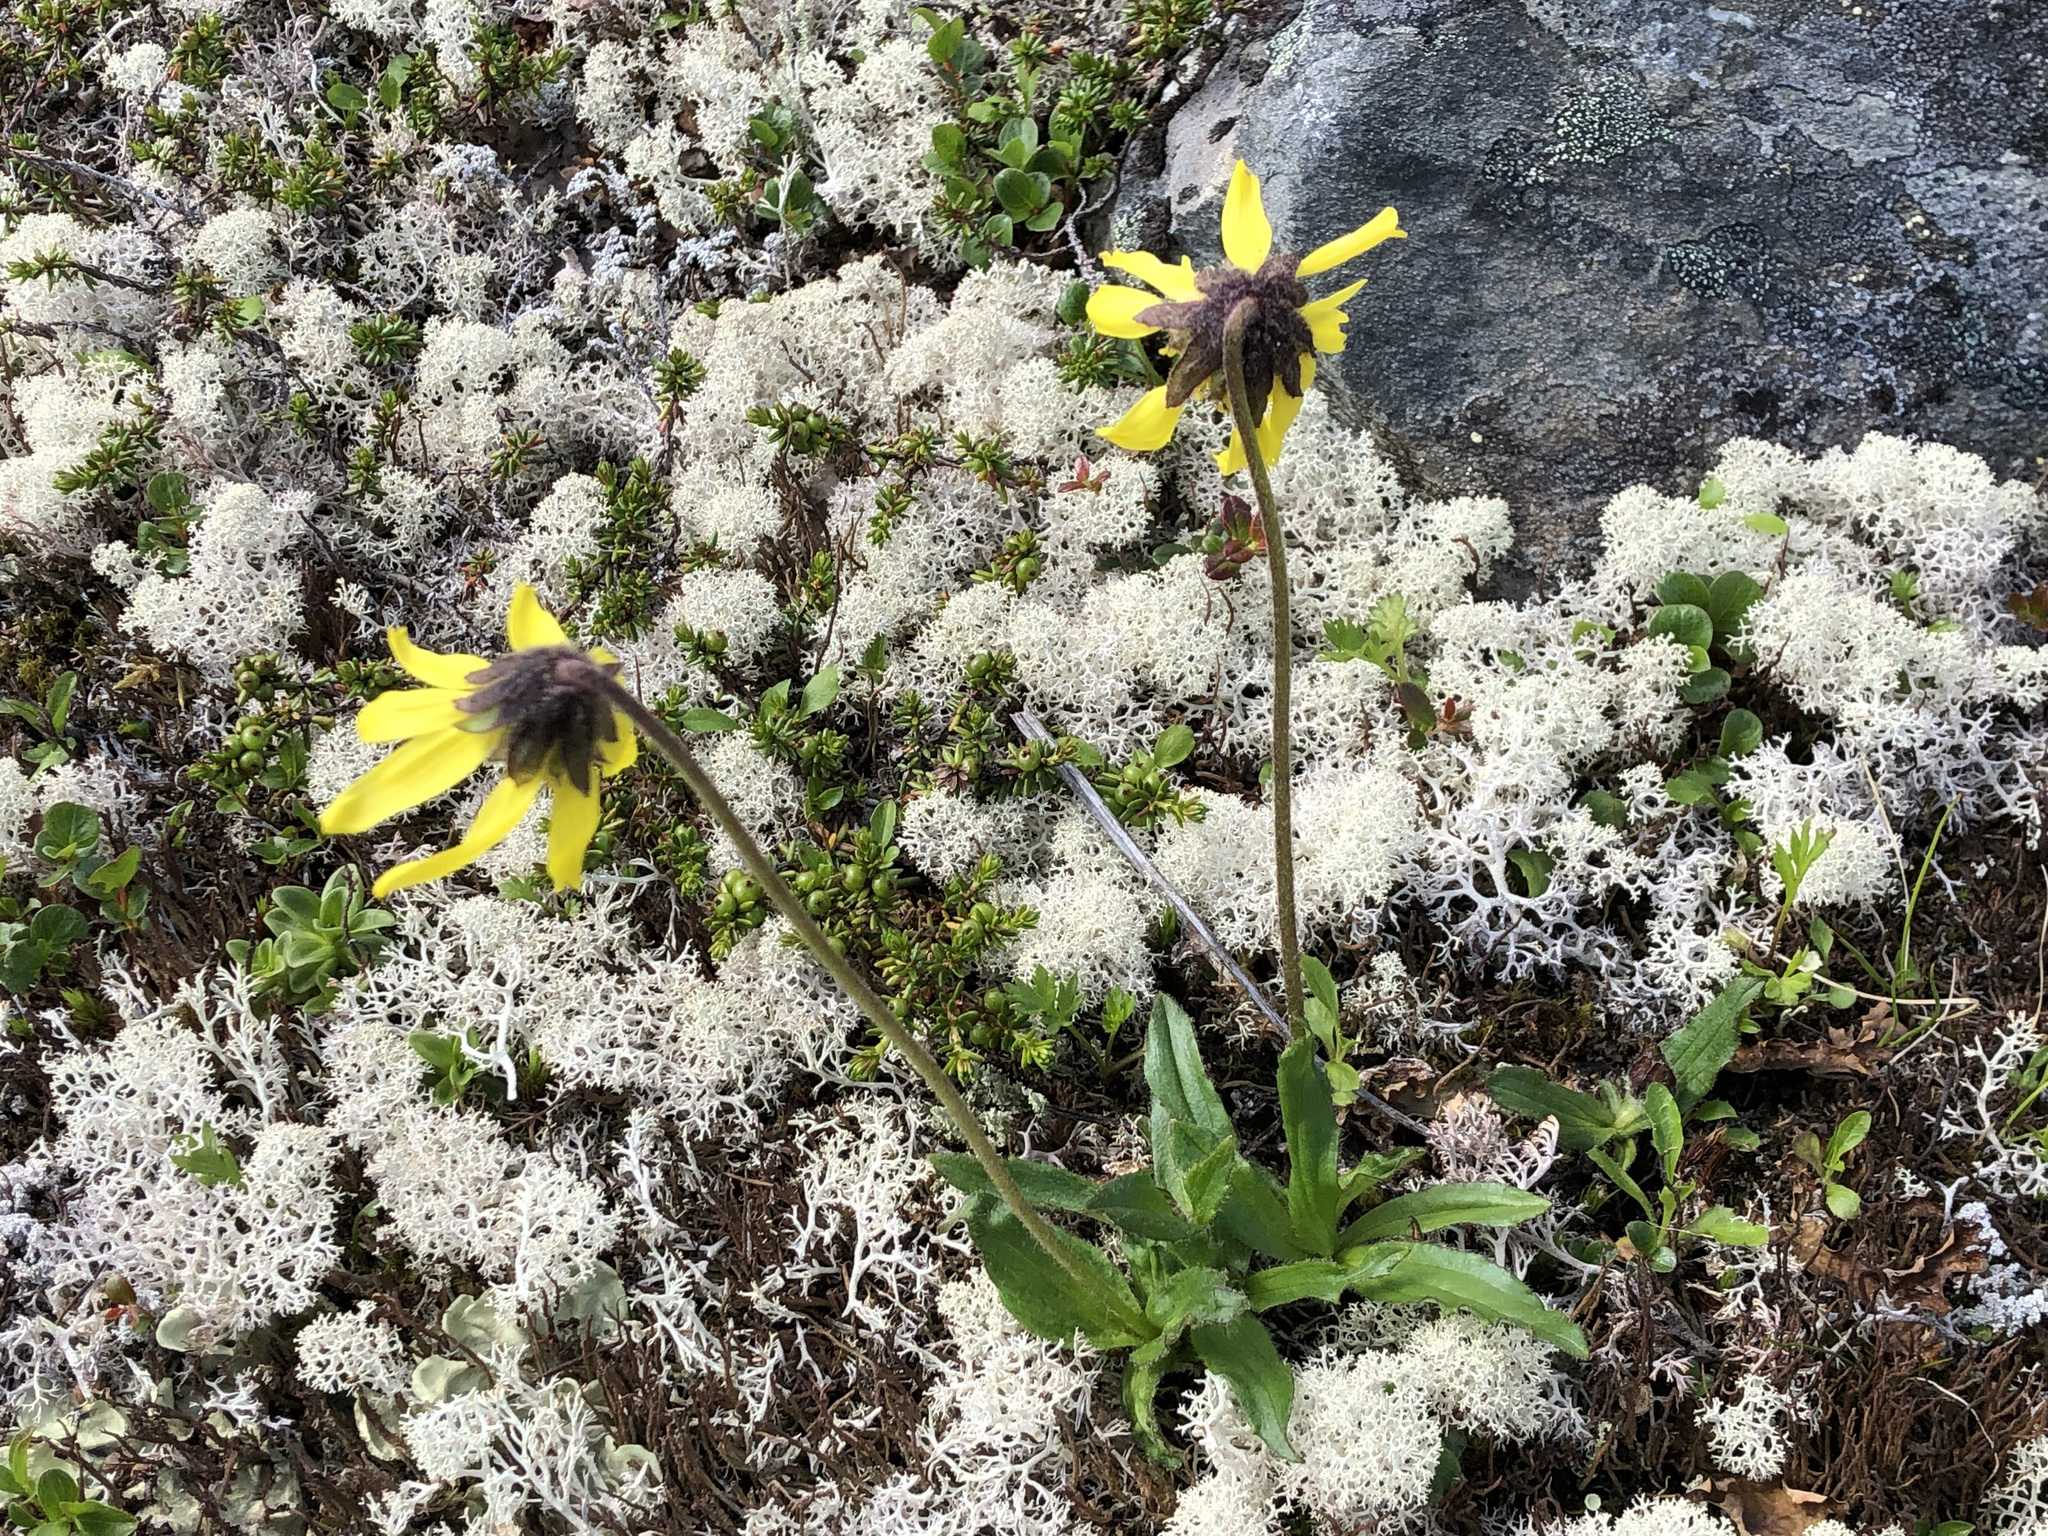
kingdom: Plantae
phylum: Tracheophyta
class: Magnoliopsida
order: Asterales
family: Asteraceae
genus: Arnica
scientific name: Arnica lessingii
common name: Nodding arnica
